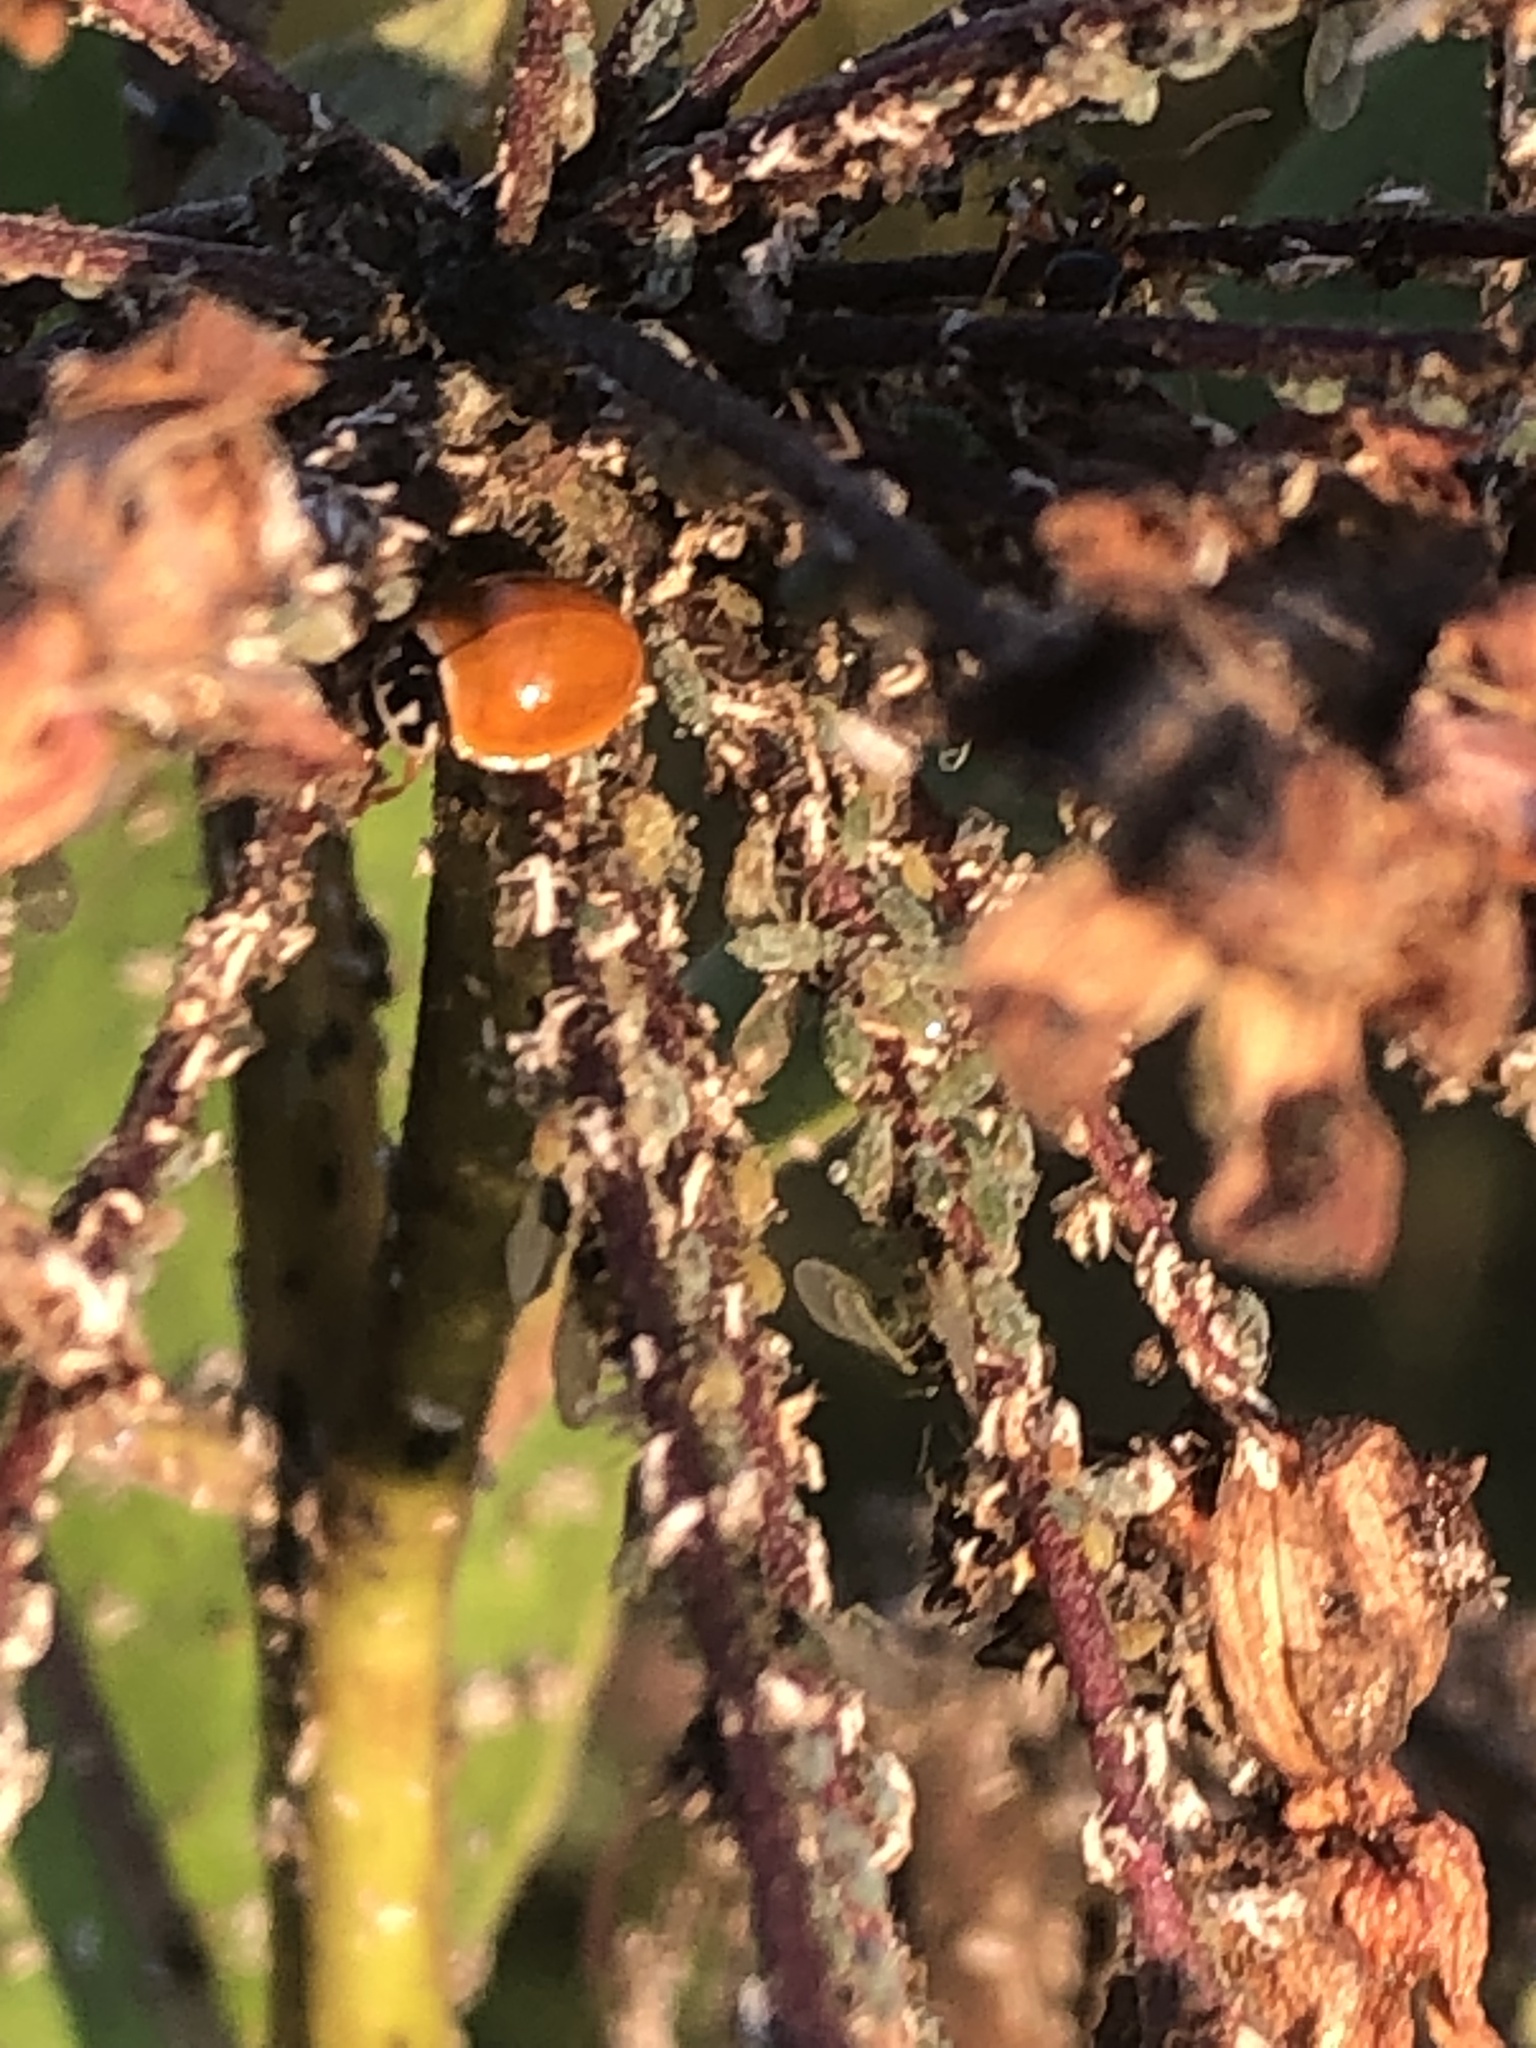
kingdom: Animalia
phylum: Arthropoda
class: Insecta
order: Coleoptera
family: Coccinellidae
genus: Cycloneda
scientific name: Cycloneda munda
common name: Polished lady beetle
